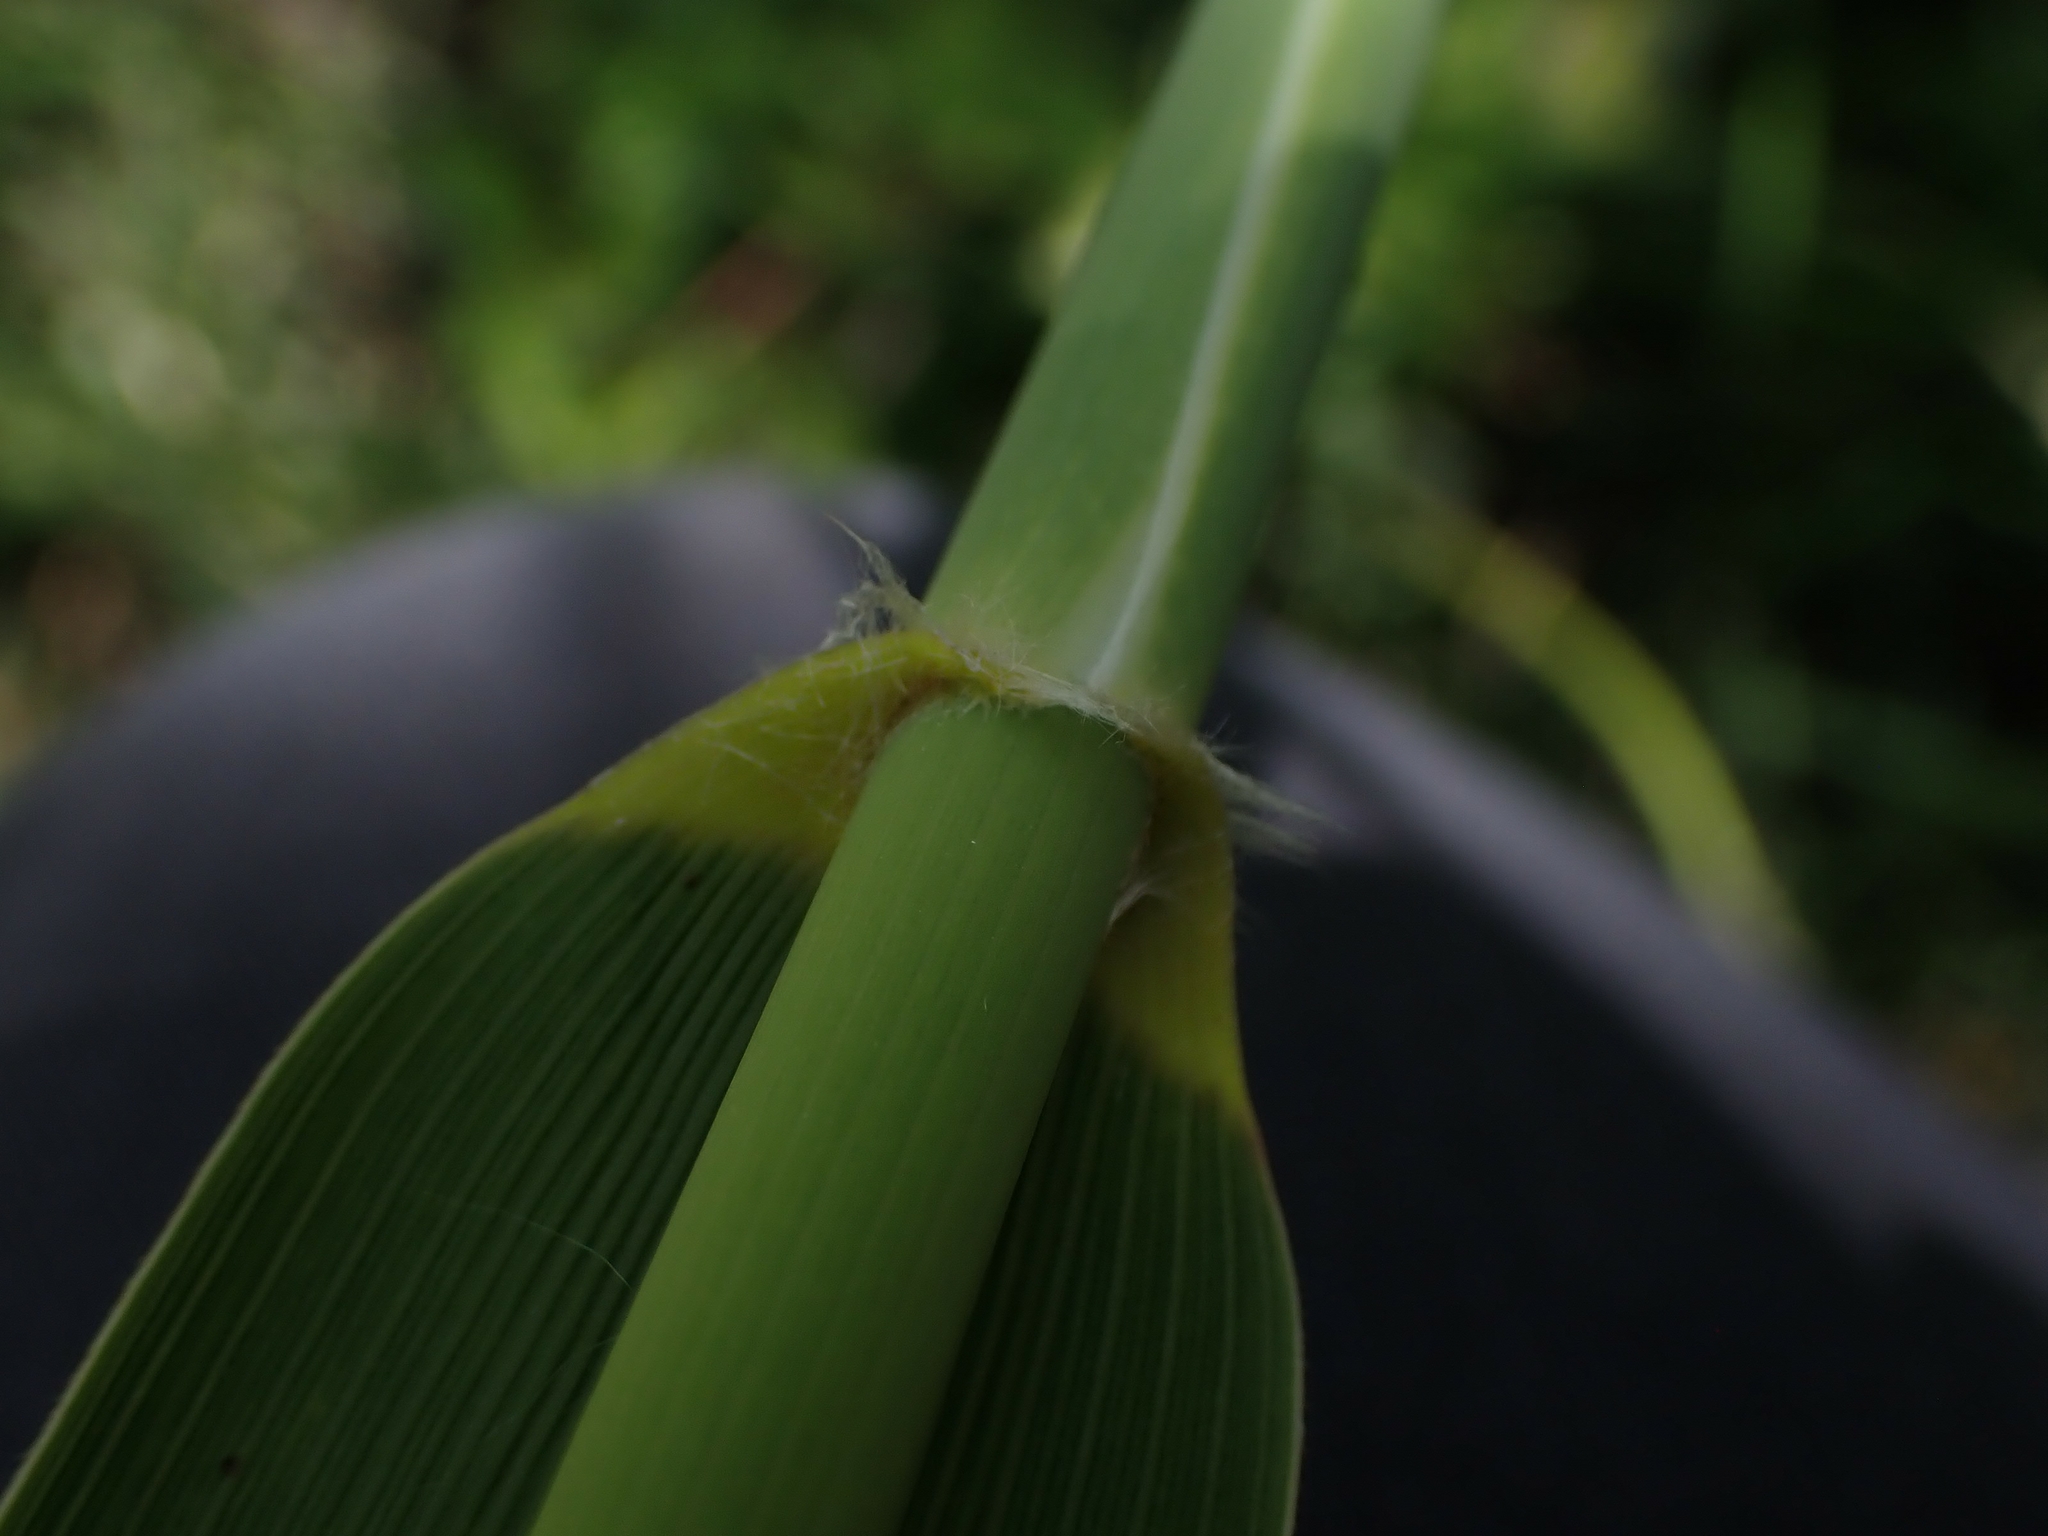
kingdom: Plantae
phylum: Tracheophyta
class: Liliopsida
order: Poales
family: Poaceae
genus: Phragmites
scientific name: Phragmites australis
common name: Common reed
